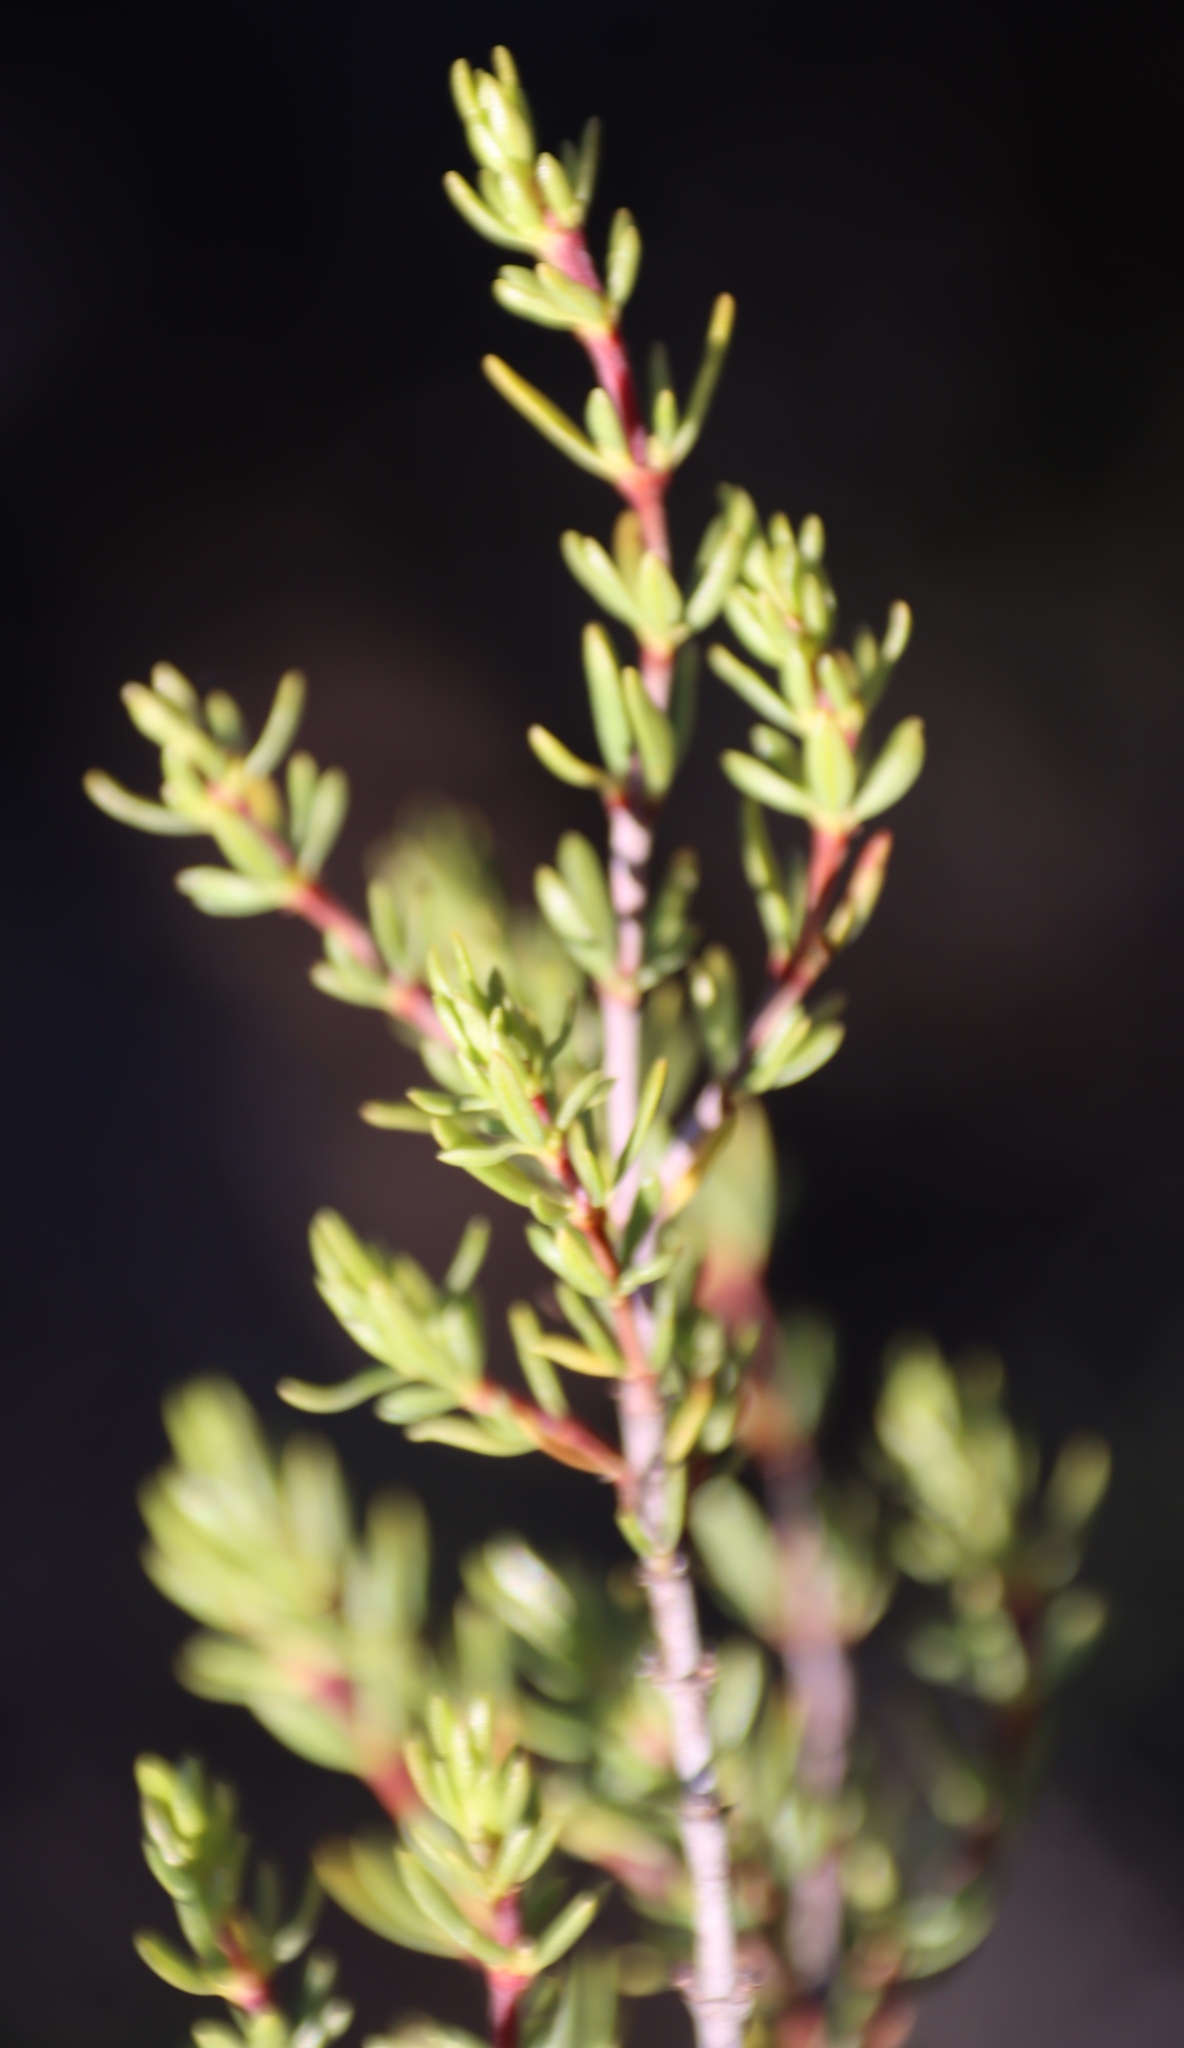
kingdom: Plantae
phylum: Tracheophyta
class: Magnoliopsida
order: Gentianales
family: Rubiaceae
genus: Anthospermum
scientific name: Anthospermum spathulatum
